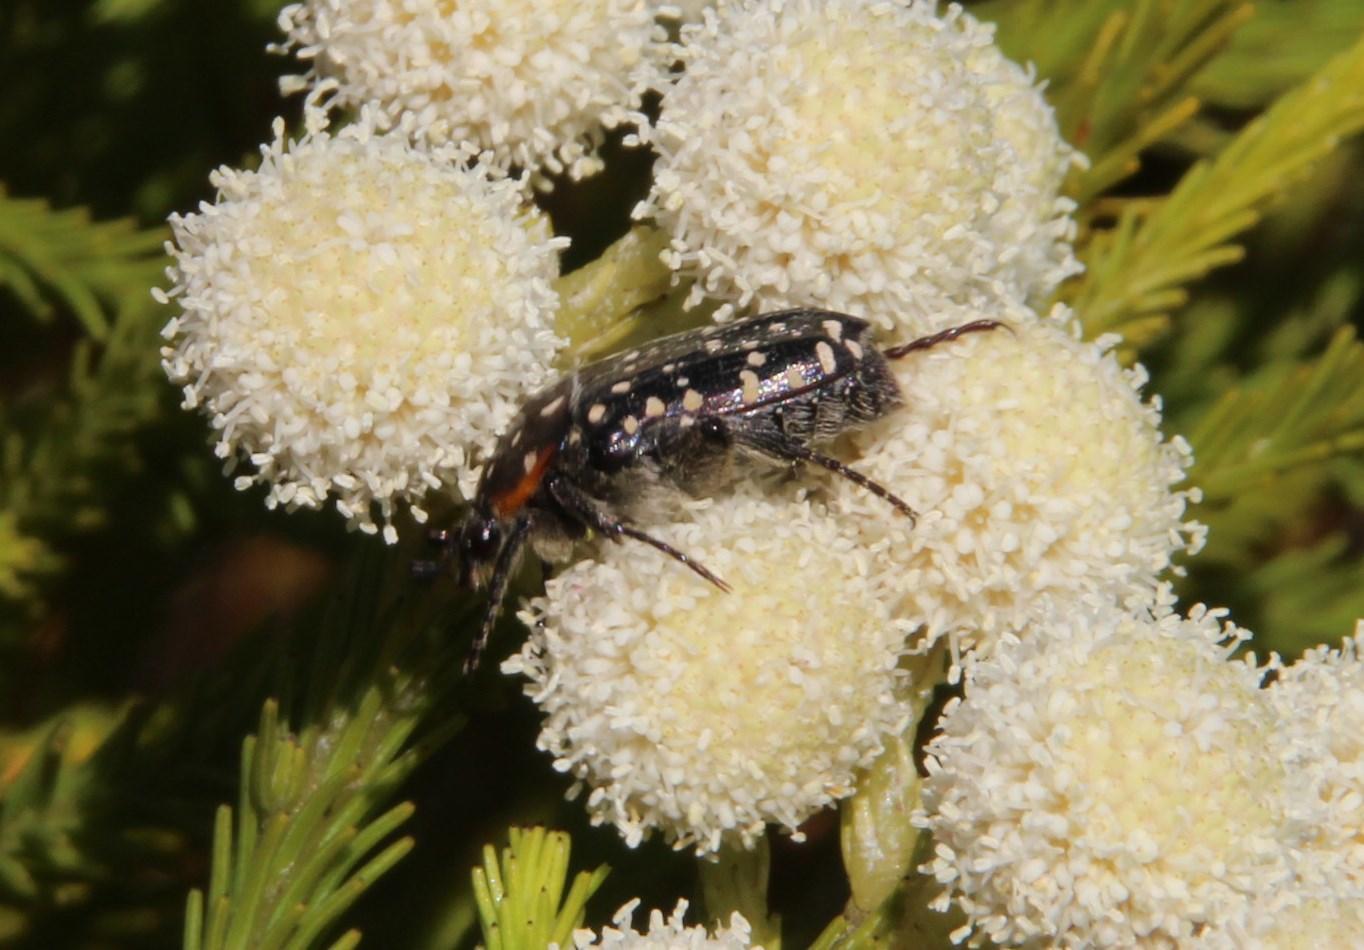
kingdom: Animalia
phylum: Arthropoda
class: Insecta
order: Coleoptera
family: Scarabaeidae
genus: Oxythyrea
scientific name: Oxythyrea
